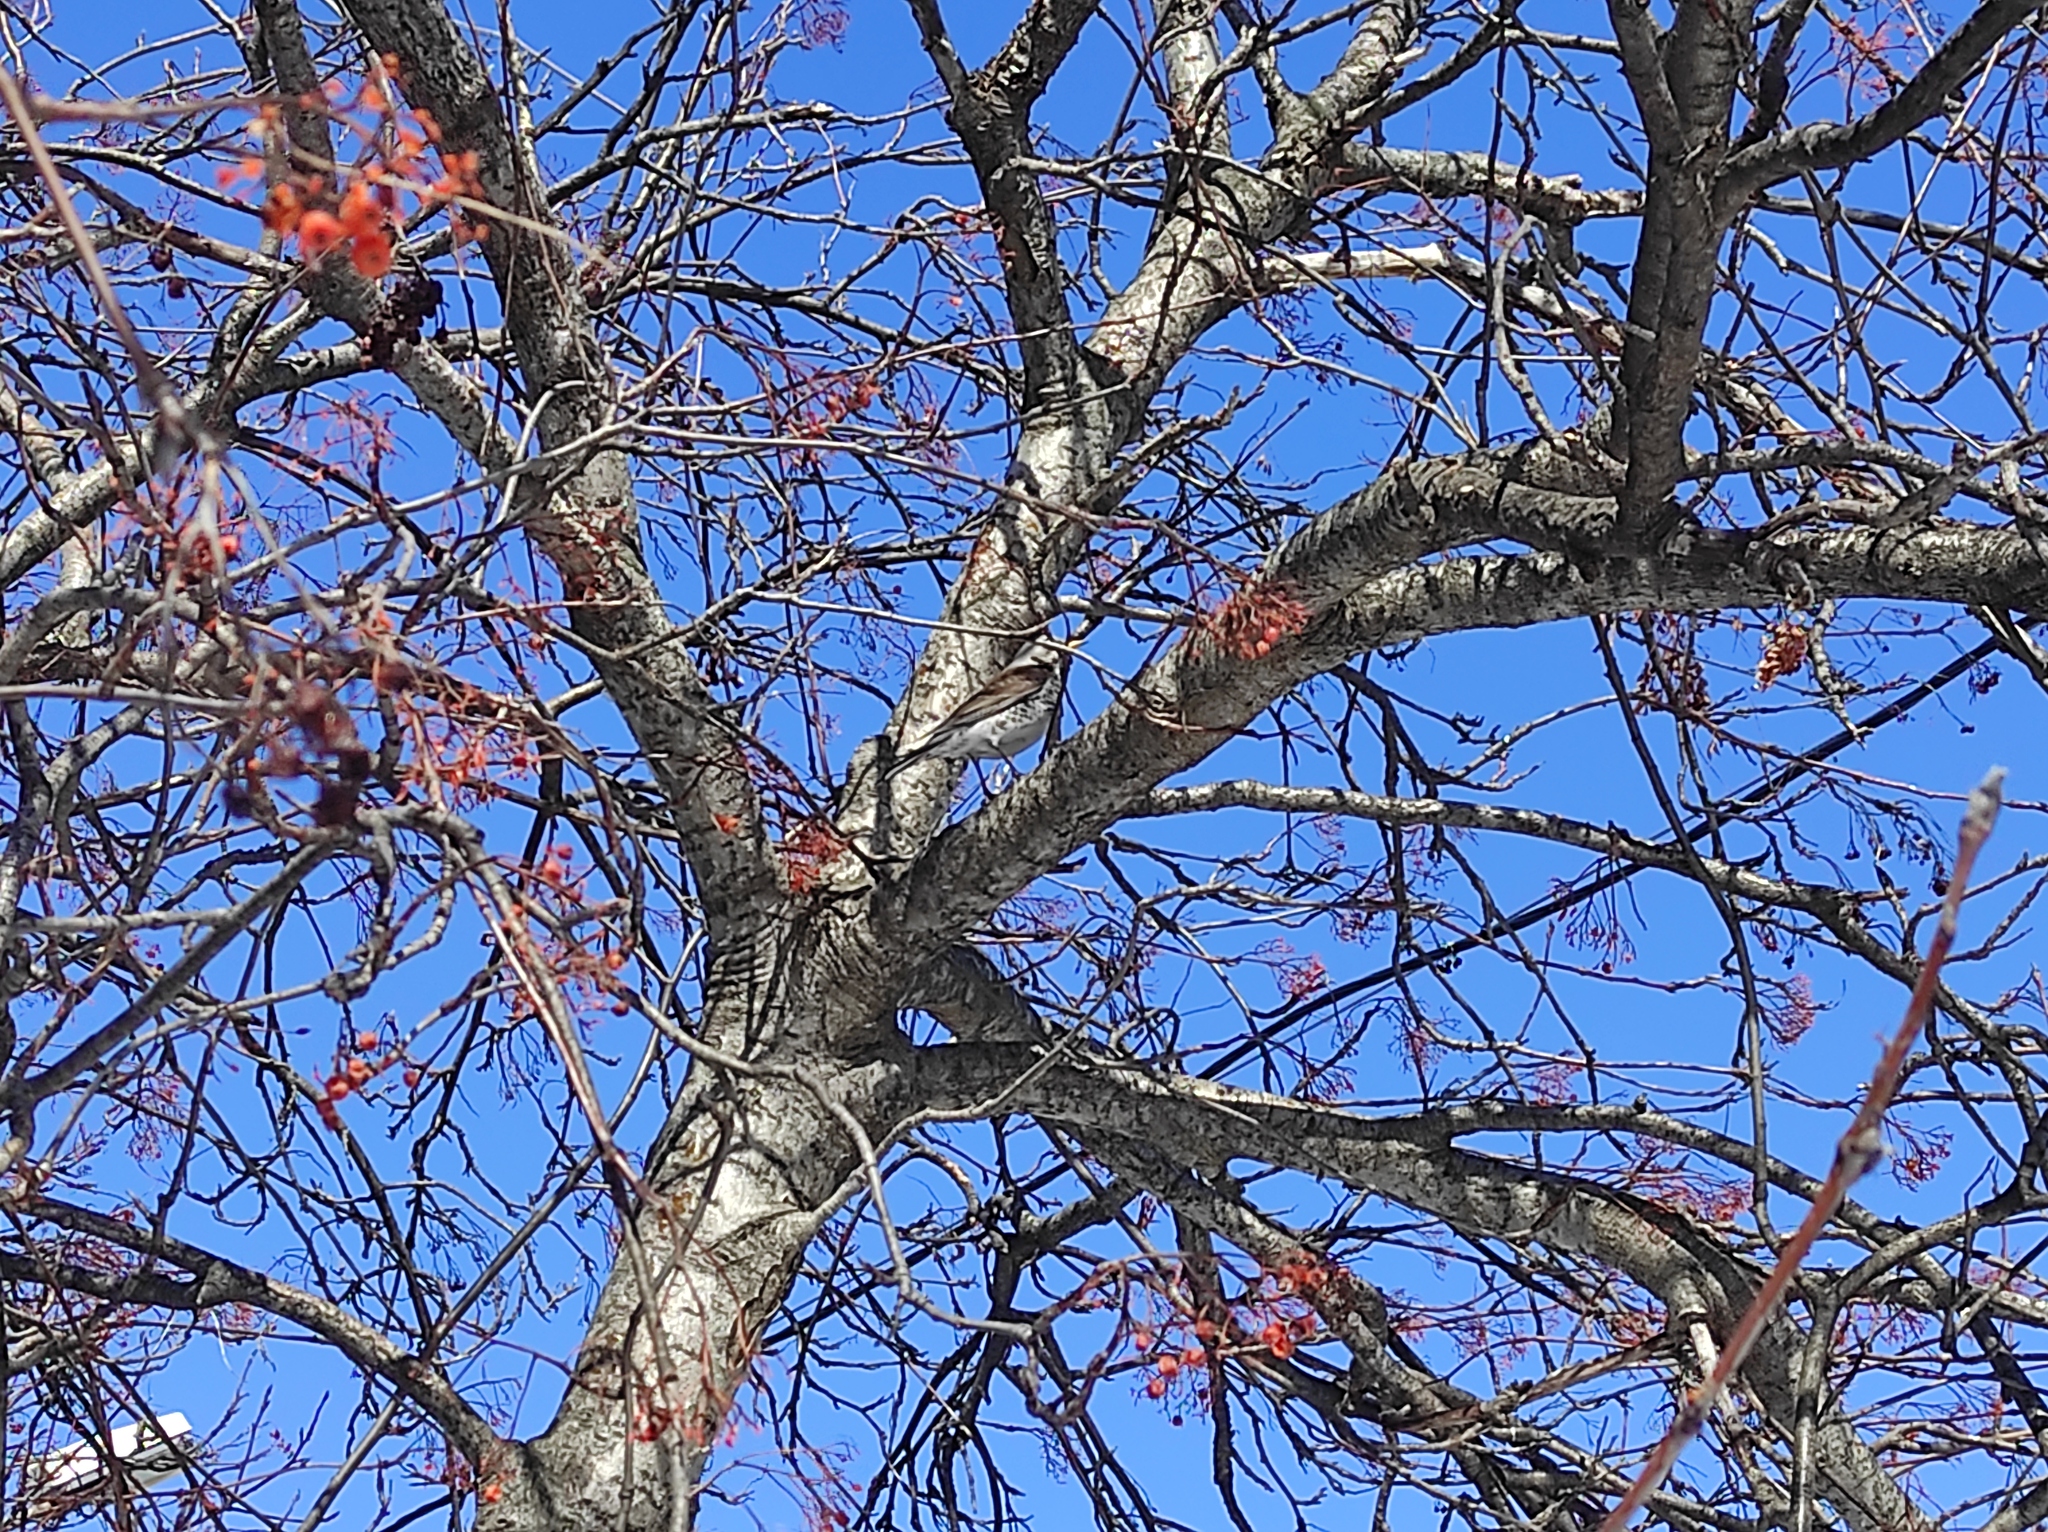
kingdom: Animalia
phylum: Chordata
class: Aves
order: Passeriformes
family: Turdidae
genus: Turdus
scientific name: Turdus pilaris
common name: Fieldfare
